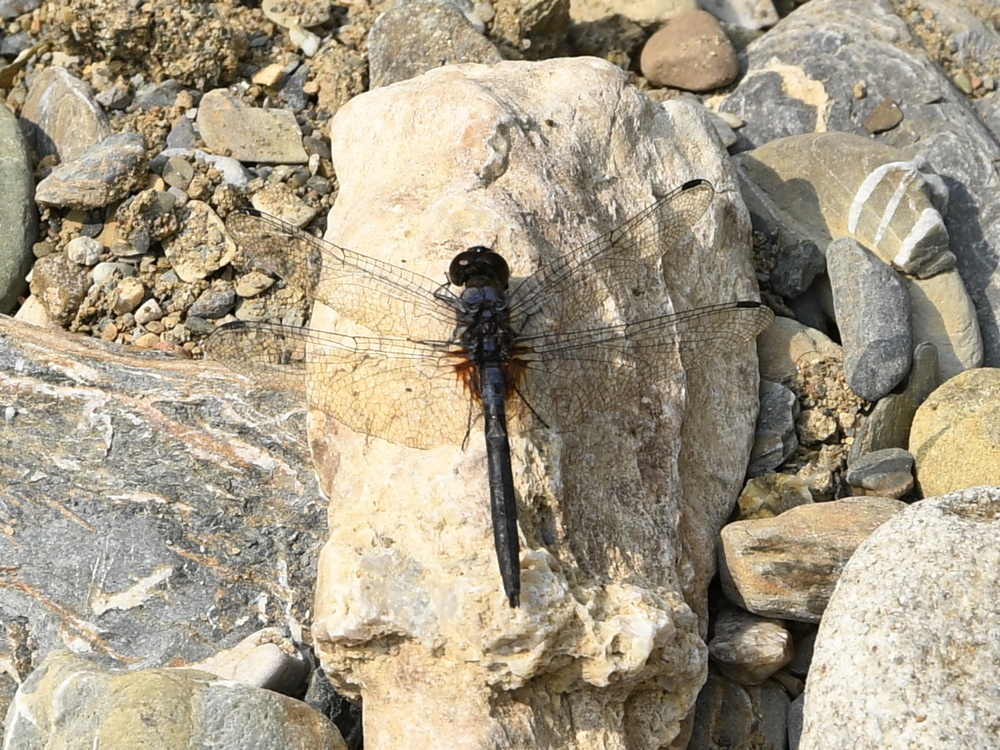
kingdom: Animalia
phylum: Arthropoda
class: Insecta
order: Odonata
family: Libellulidae
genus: Trithemis
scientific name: Trithemis festiva
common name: Indigo dropwing
